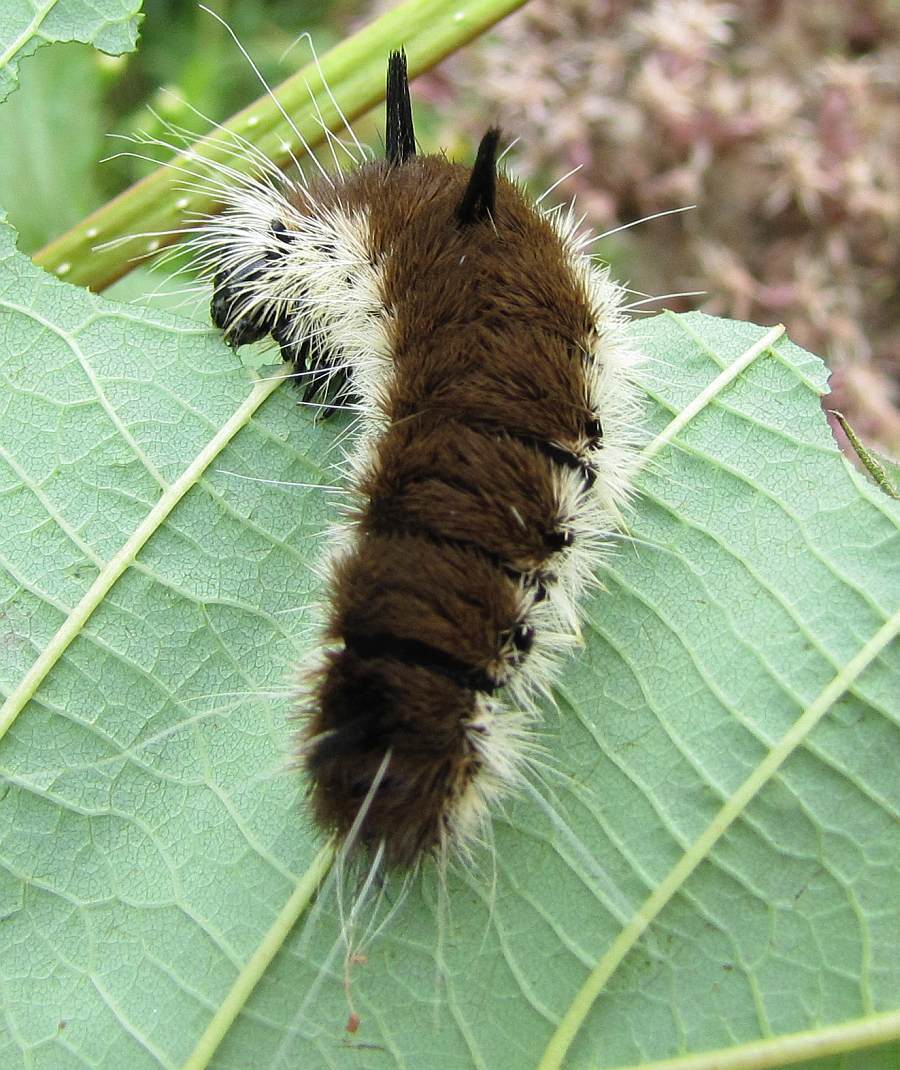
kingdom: Animalia
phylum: Arthropoda
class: Insecta
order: Lepidoptera
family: Noctuidae
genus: Acronicta
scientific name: Acronicta insita
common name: Large gray dagger
